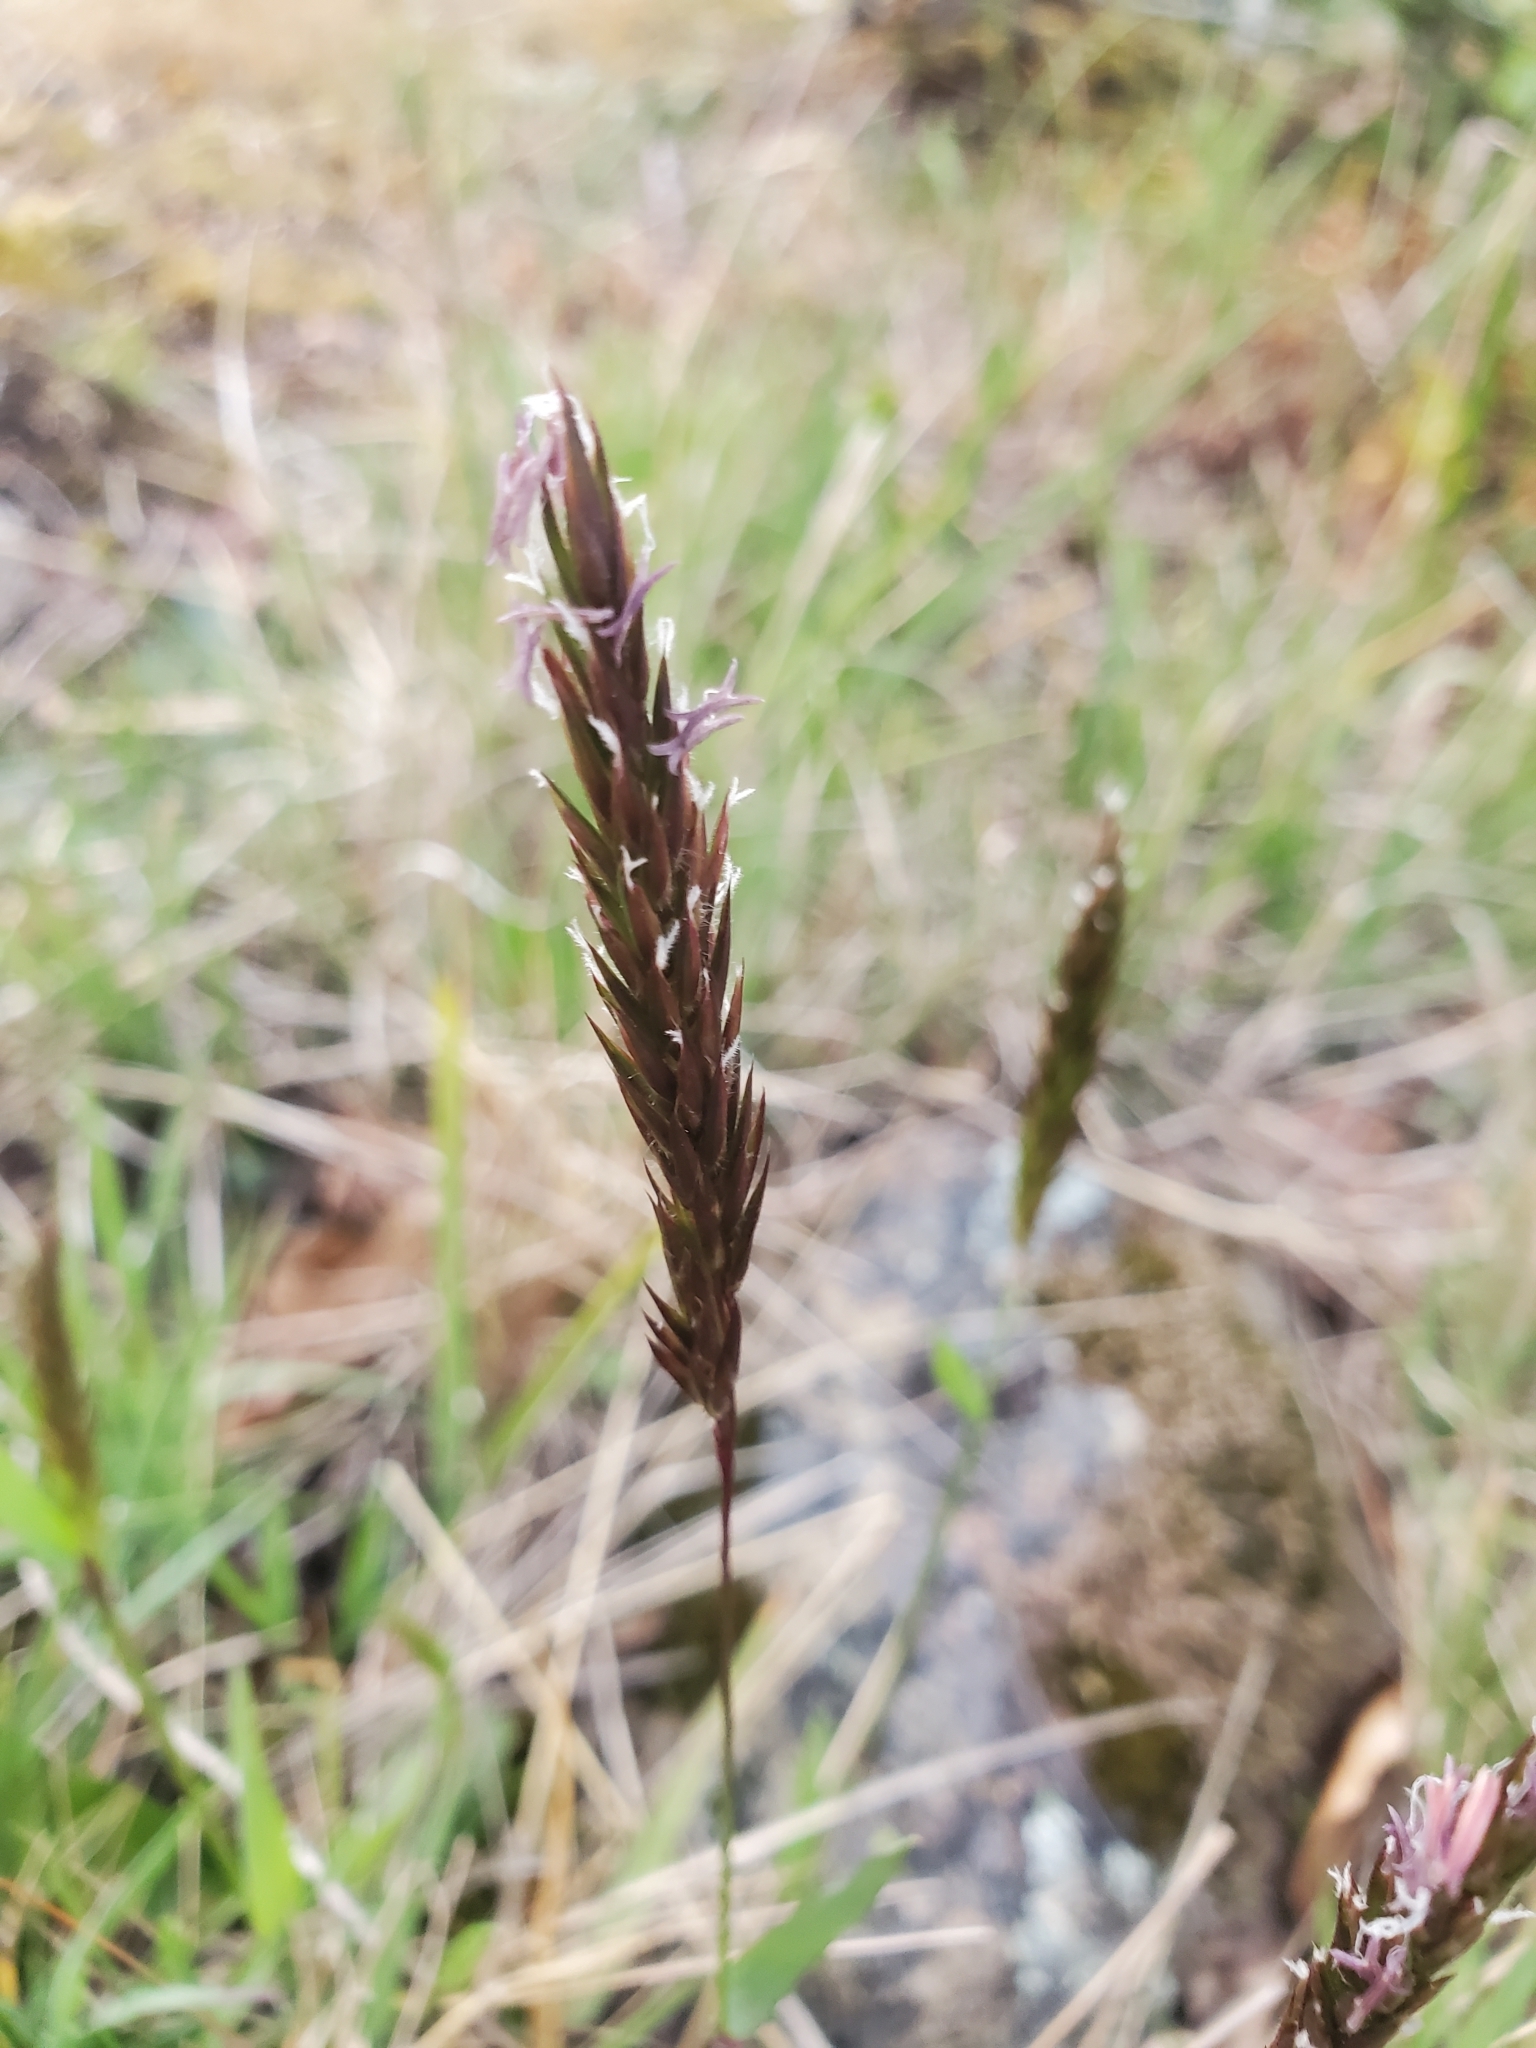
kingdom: Plantae
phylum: Tracheophyta
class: Liliopsida
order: Poales
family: Poaceae
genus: Anthoxanthum
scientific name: Anthoxanthum odoratum
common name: Sweet vernalgrass
